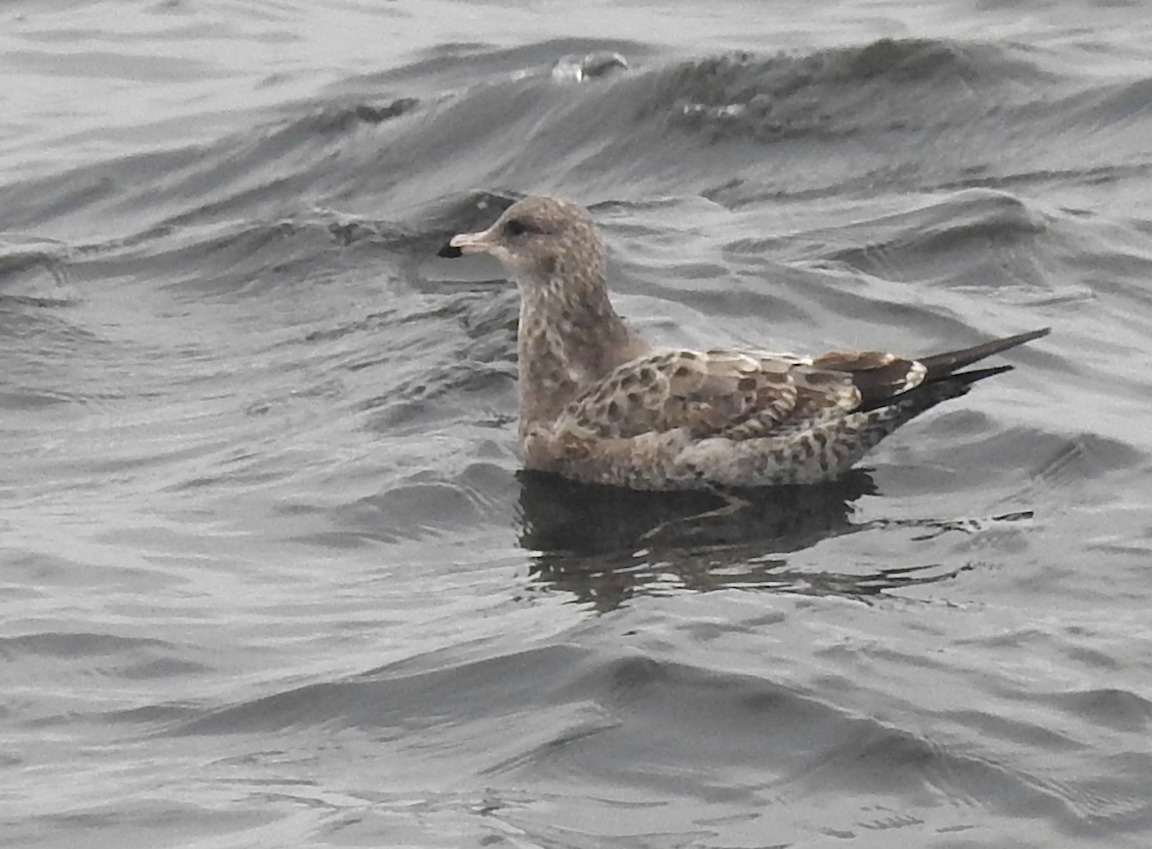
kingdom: Animalia
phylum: Chordata
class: Aves
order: Charadriiformes
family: Laridae
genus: Larus
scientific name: Larus californicus
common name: California gull
